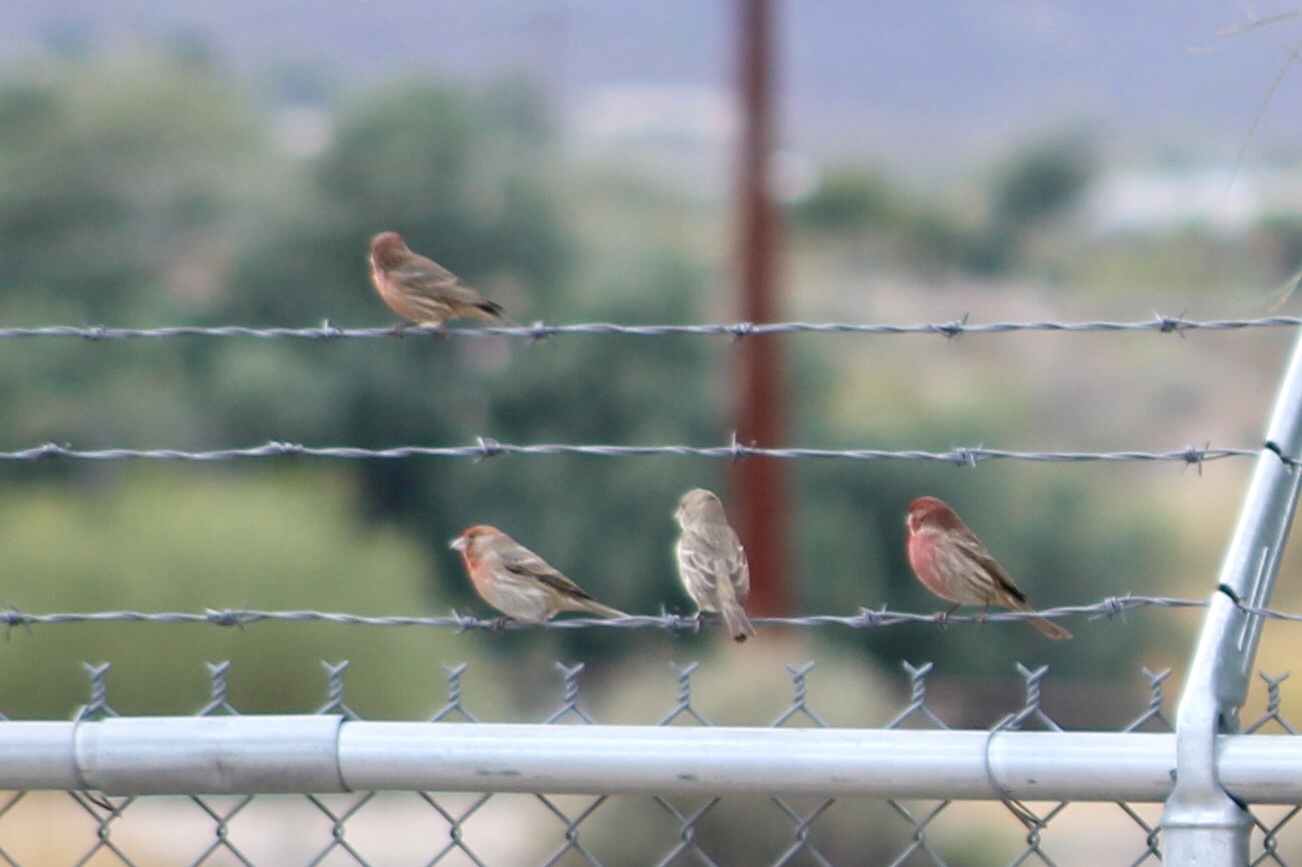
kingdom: Animalia
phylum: Chordata
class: Aves
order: Passeriformes
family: Fringillidae
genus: Haemorhous
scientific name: Haemorhous mexicanus
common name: House finch
